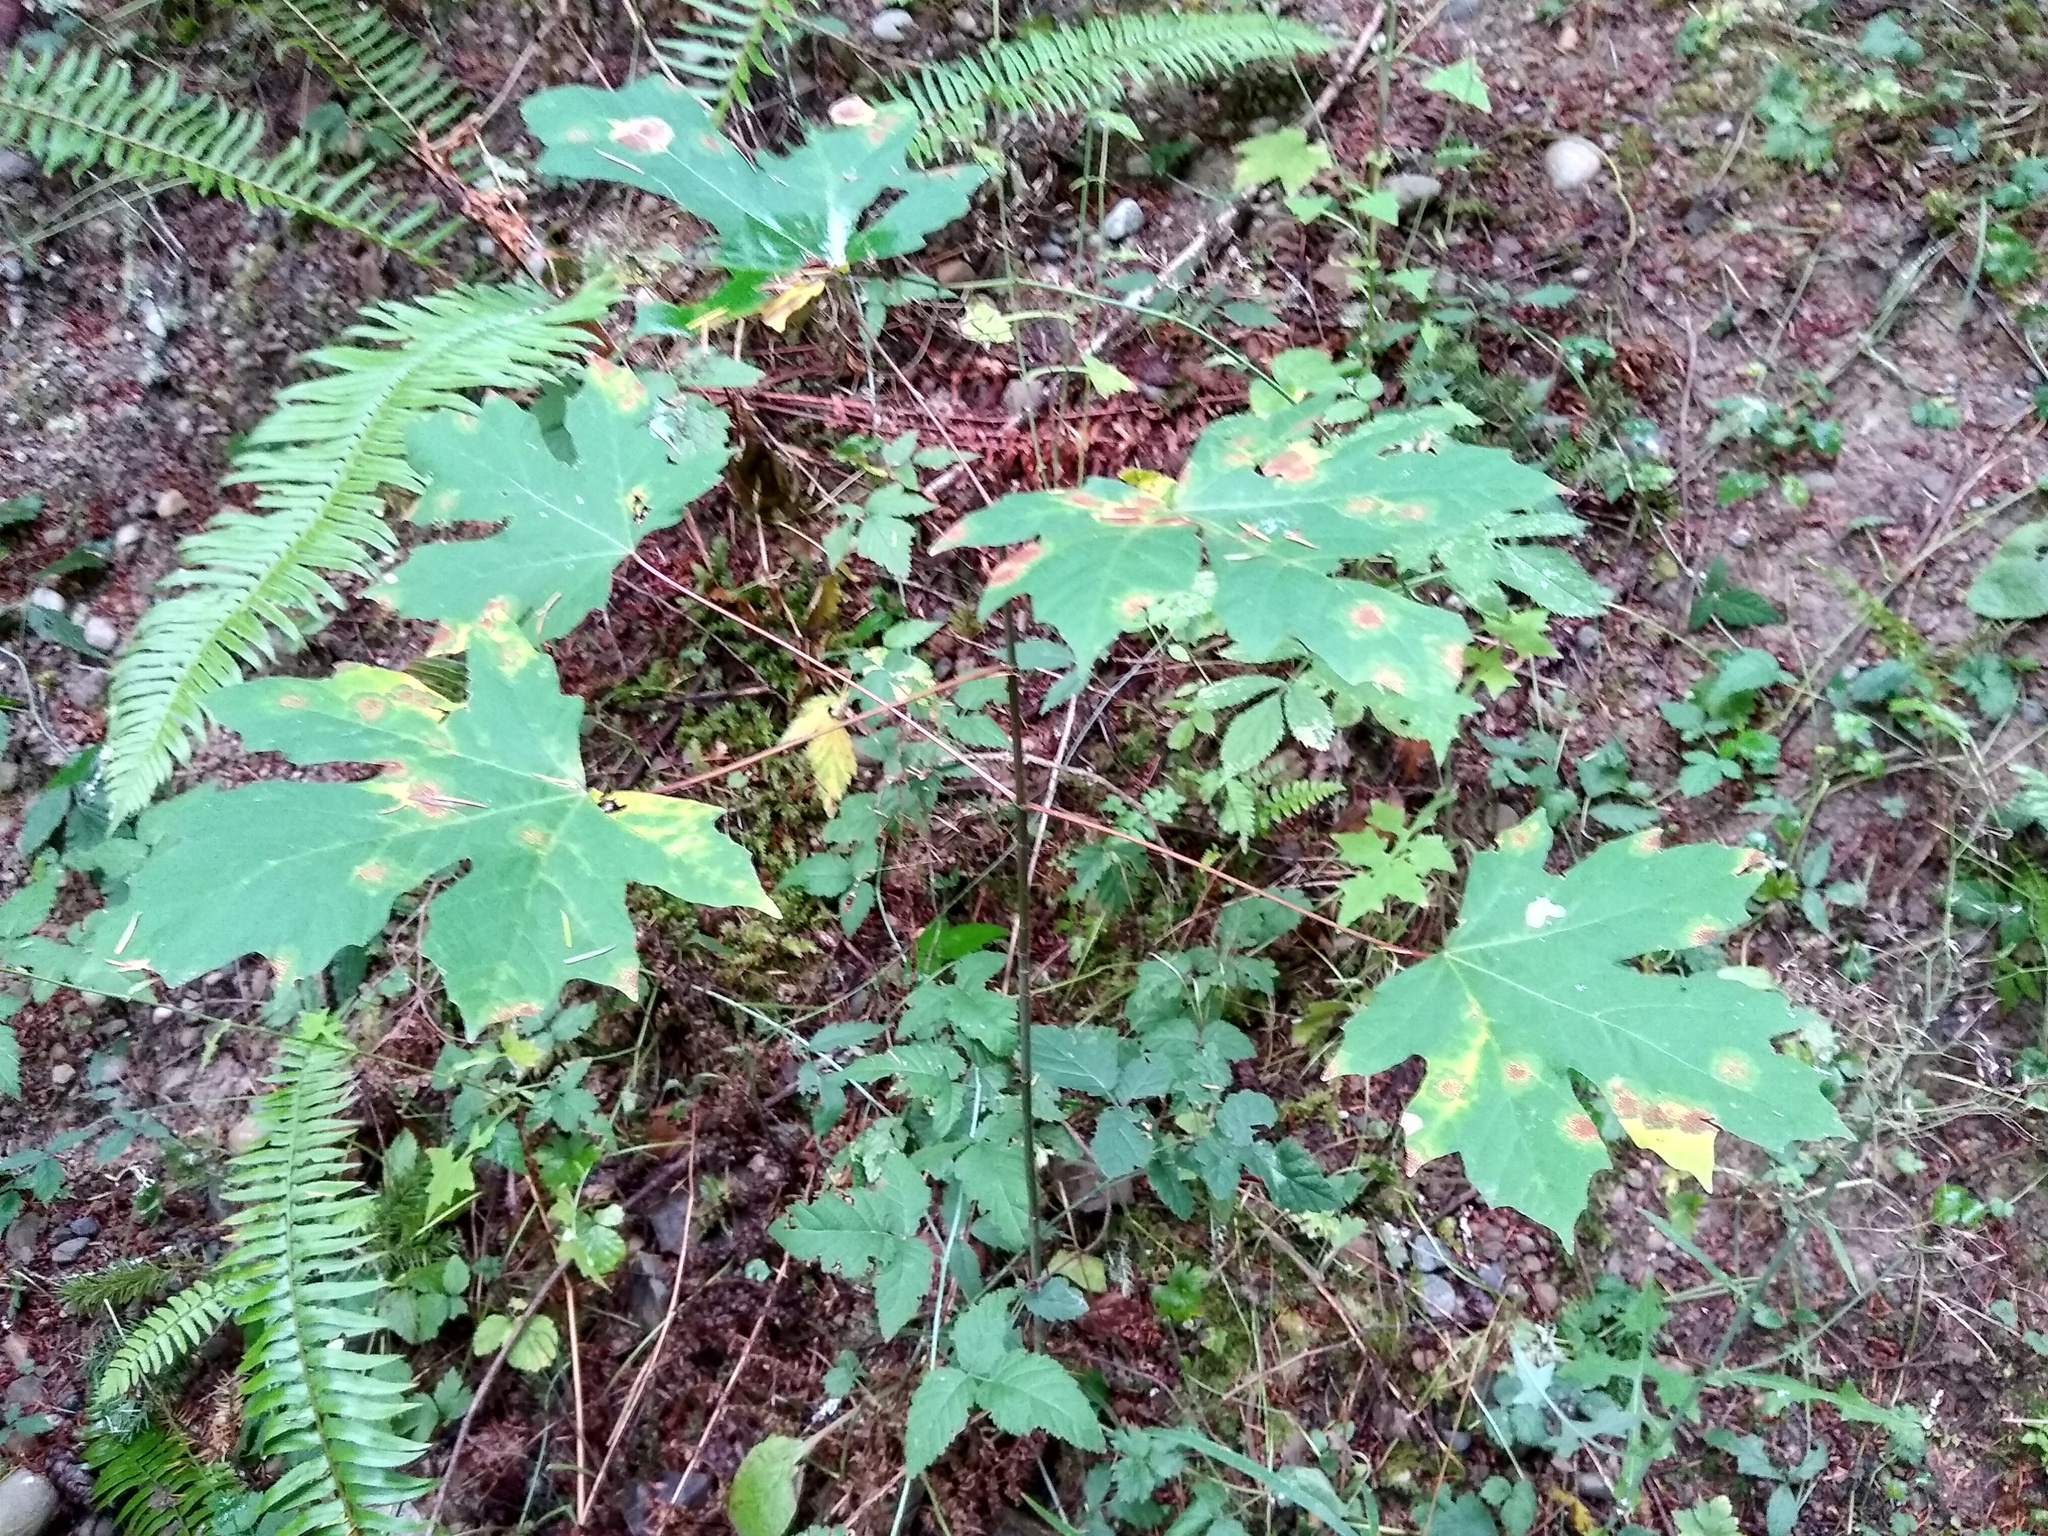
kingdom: Plantae
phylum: Tracheophyta
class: Magnoliopsida
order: Sapindales
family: Sapindaceae
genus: Acer
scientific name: Acer macrophyllum
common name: Oregon maple
